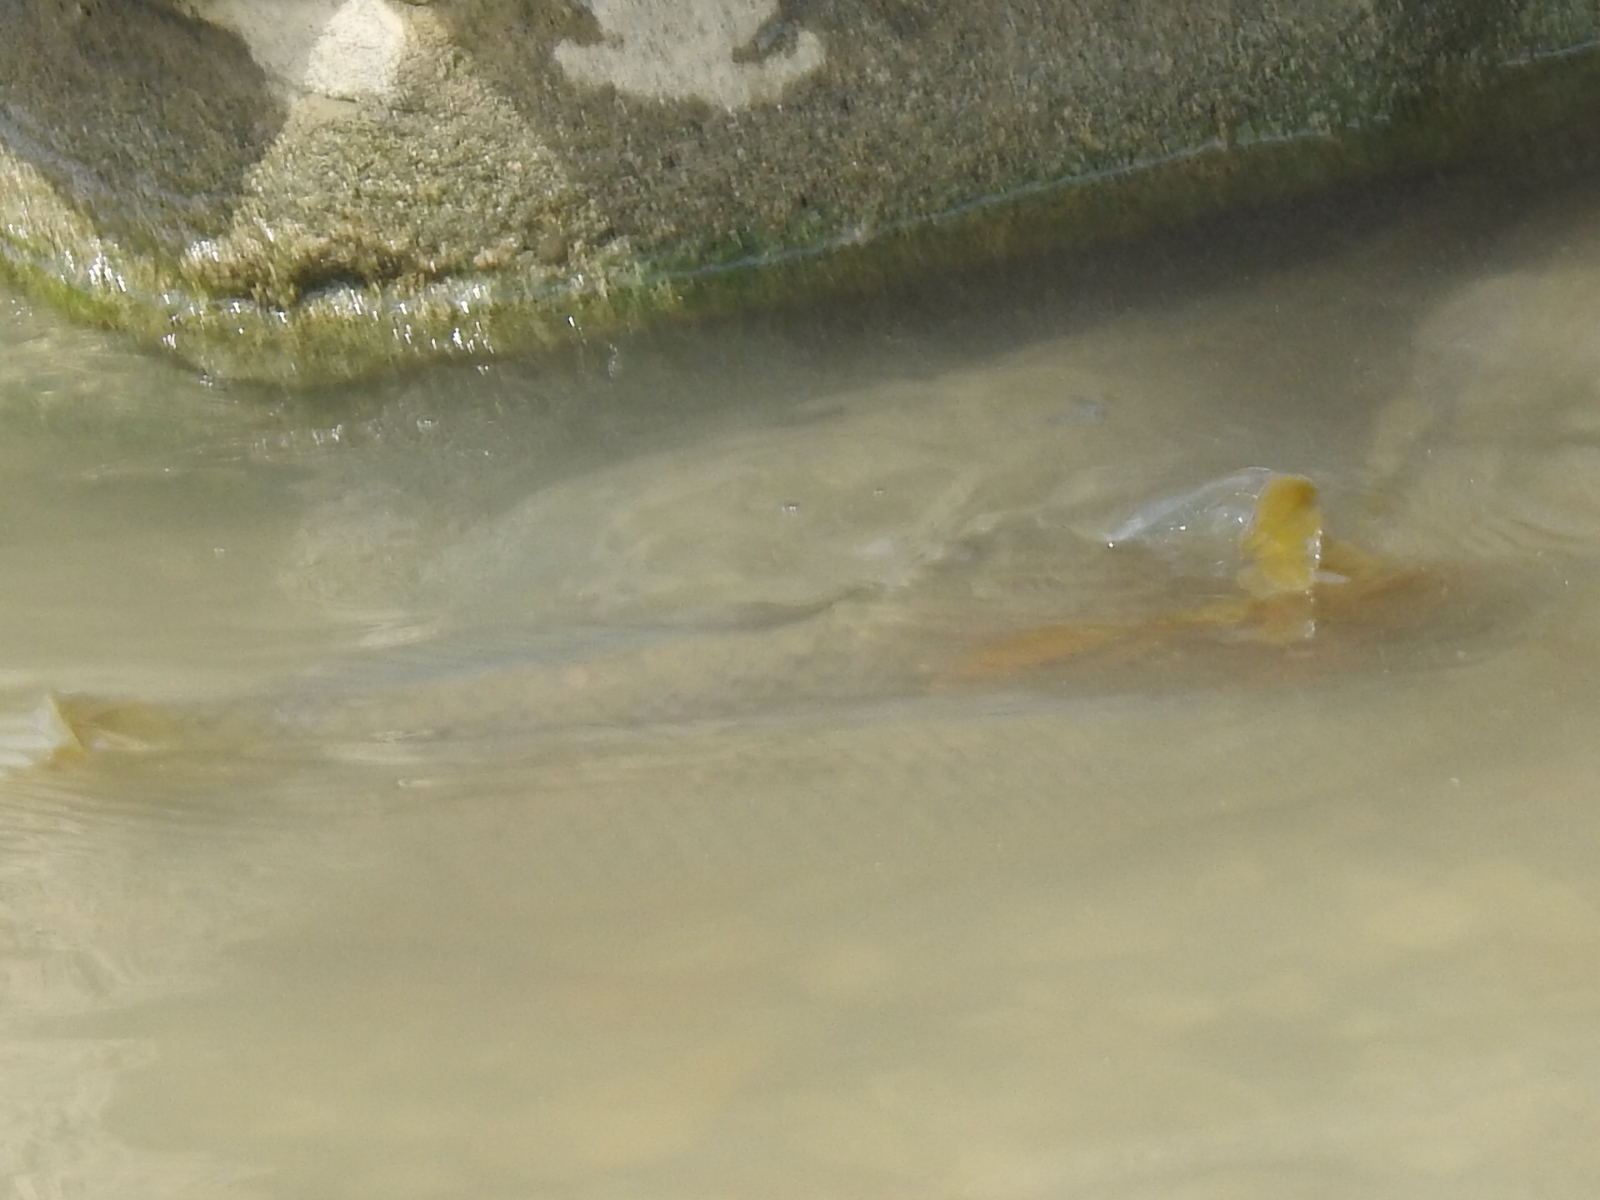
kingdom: Animalia
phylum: Chordata
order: Cypriniformes
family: Cyprinidae
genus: Cyprinus
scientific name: Cyprinus carpio
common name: Common carp
